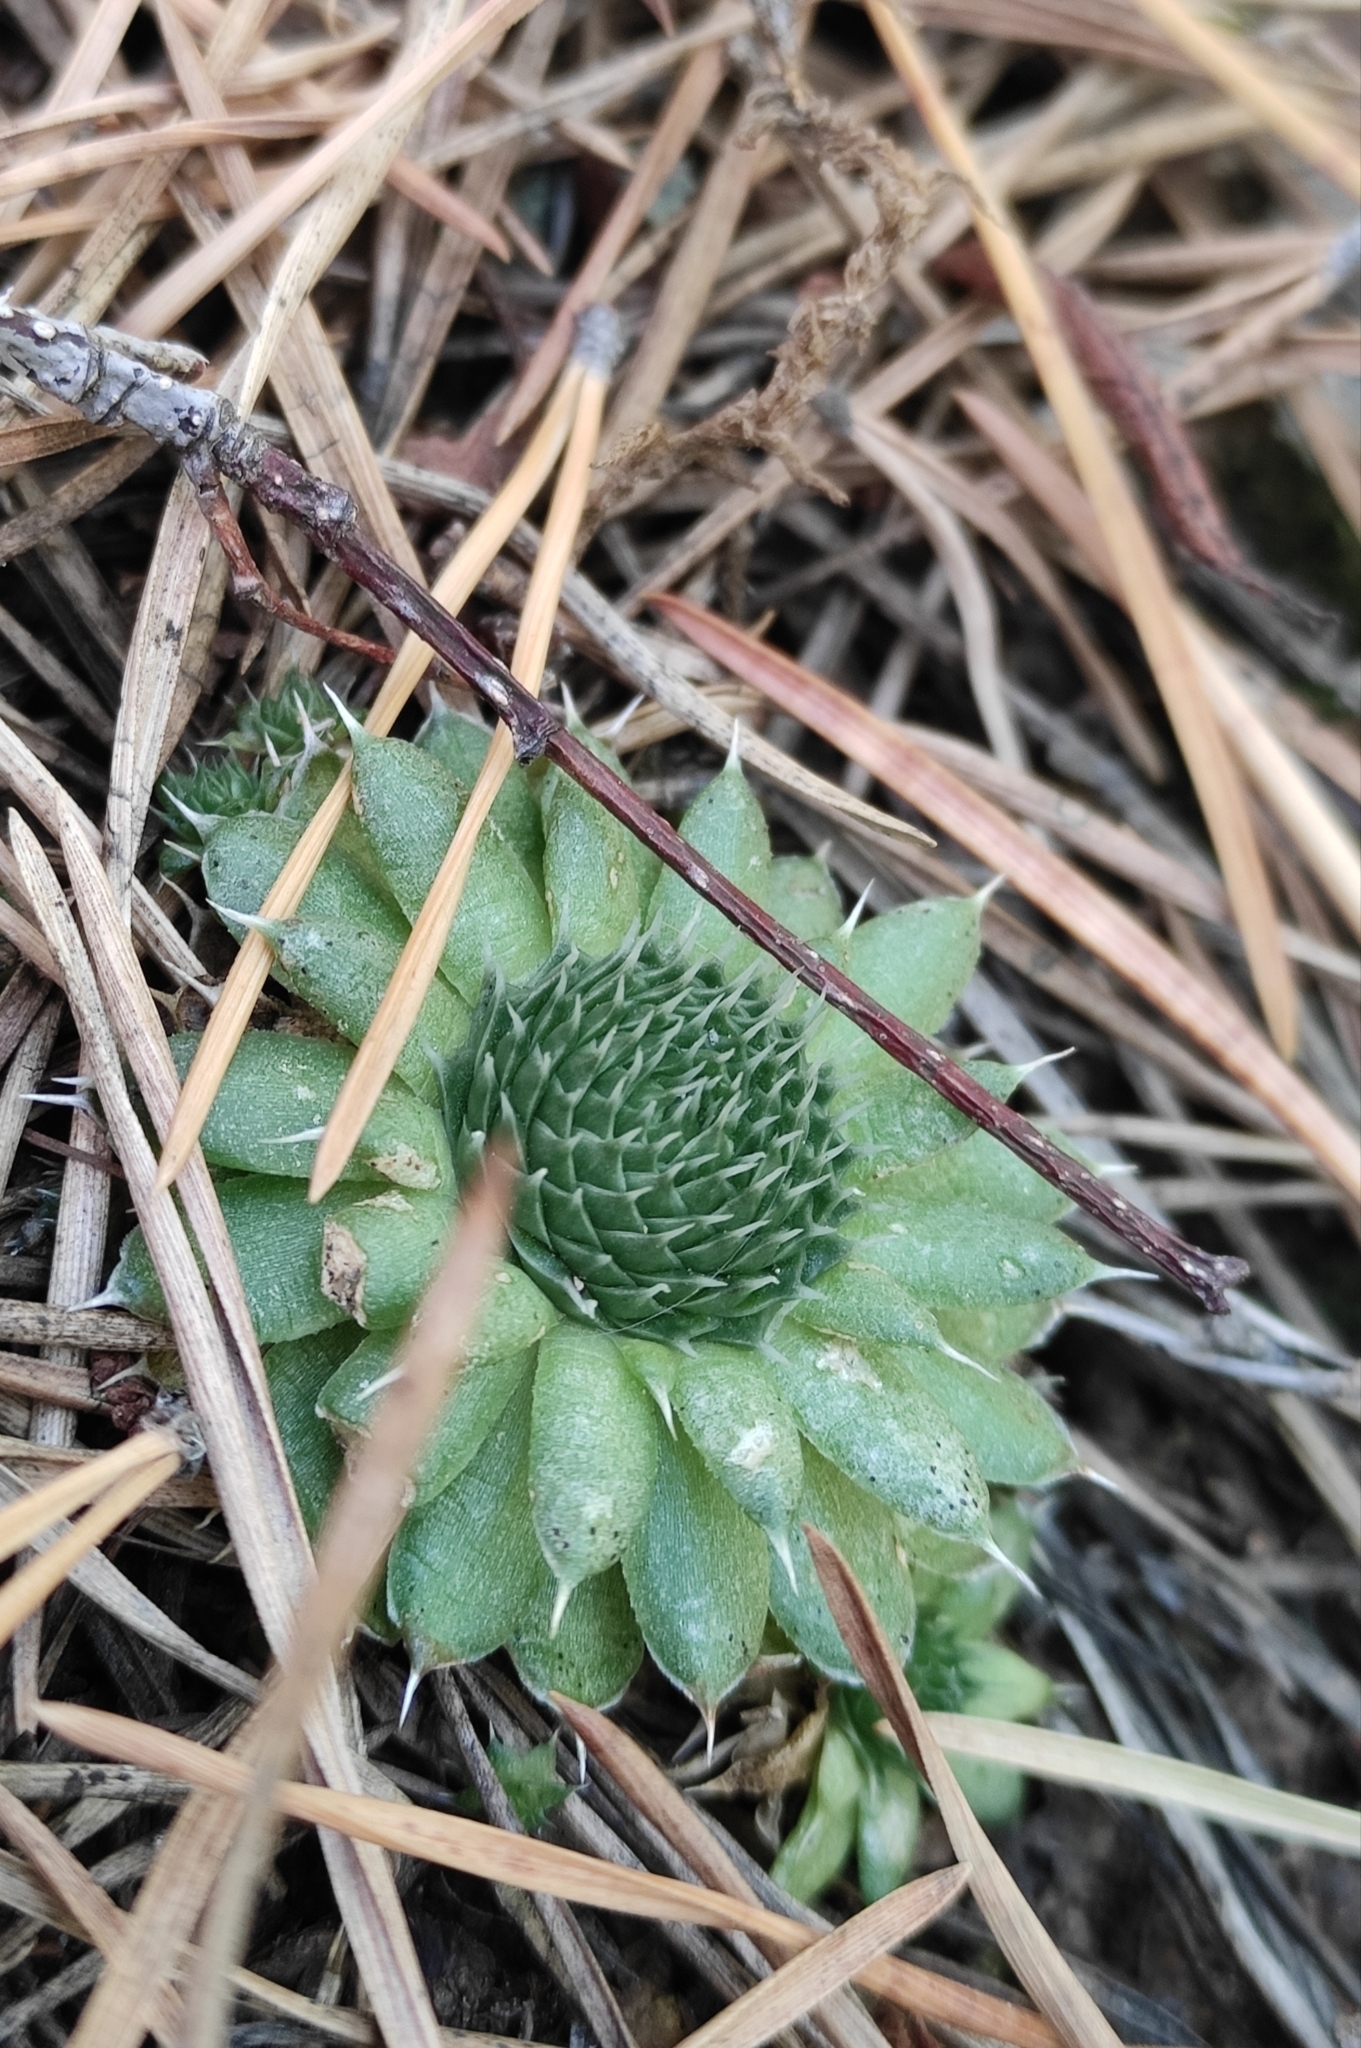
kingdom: Plantae
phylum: Tracheophyta
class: Magnoliopsida
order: Saxifragales
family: Crassulaceae
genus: Orostachys
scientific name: Orostachys spinosa
